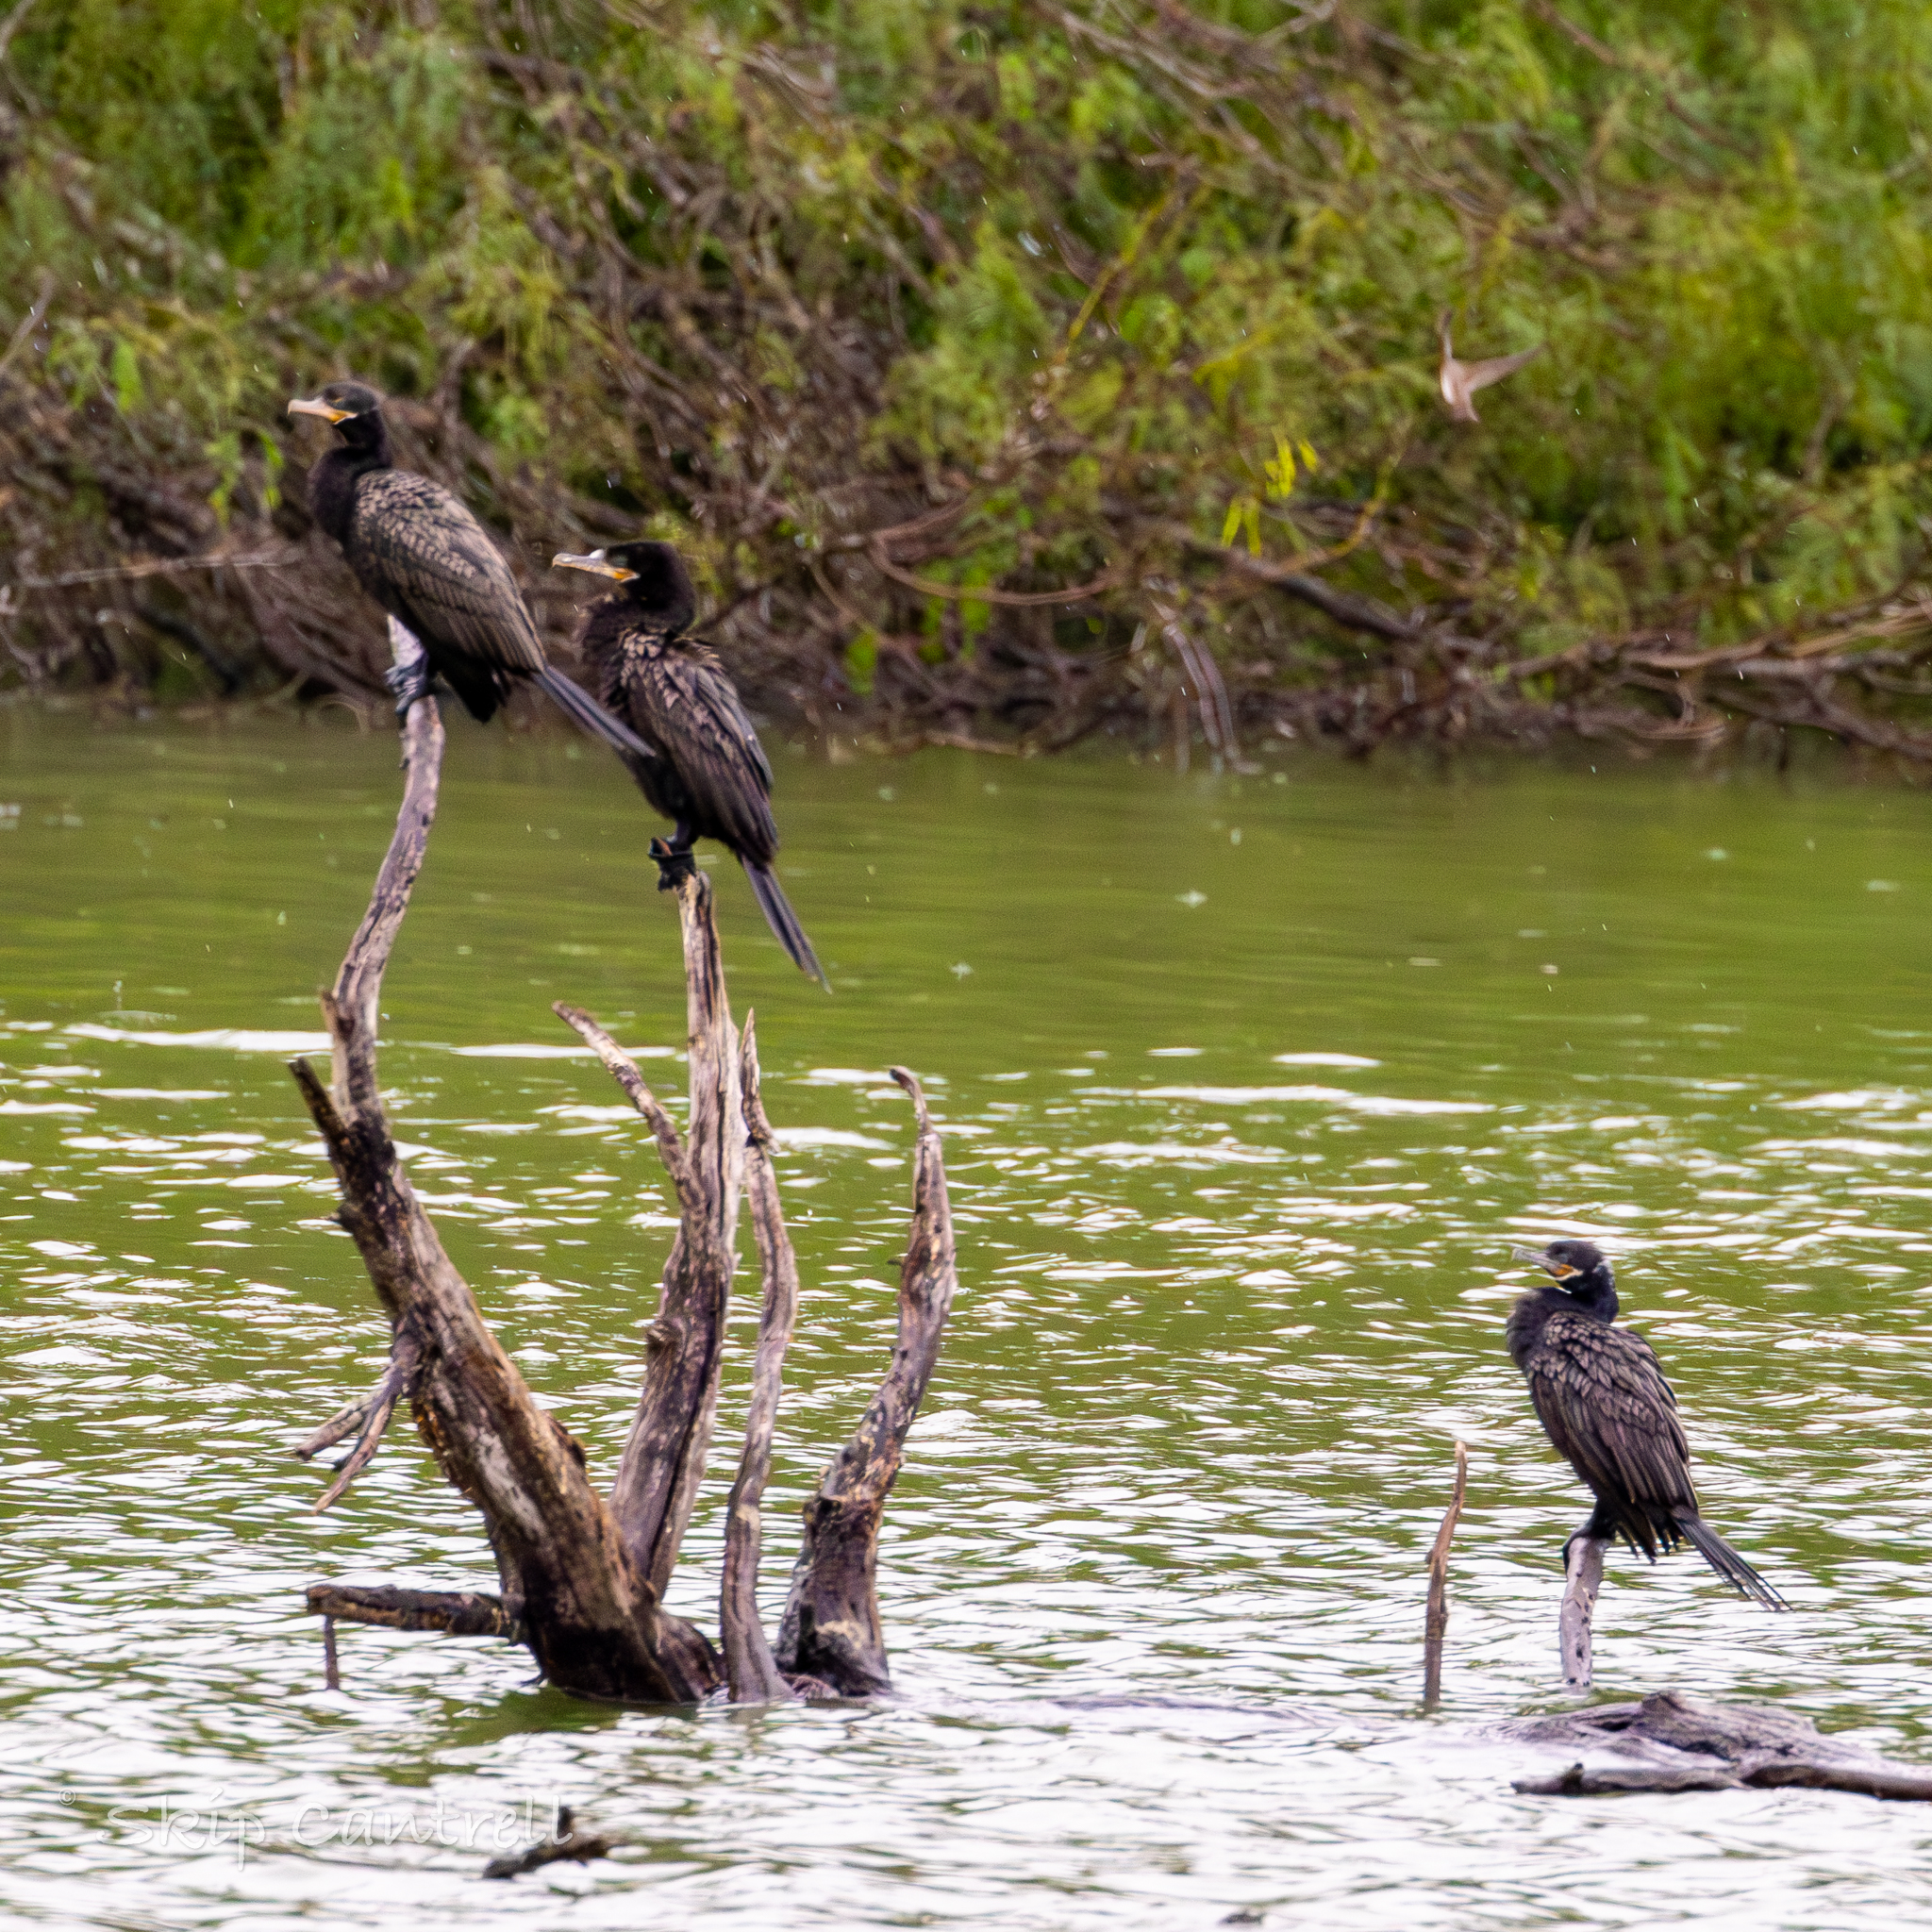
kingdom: Animalia
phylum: Chordata
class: Aves
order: Suliformes
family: Phalacrocoracidae
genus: Phalacrocorax
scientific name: Phalacrocorax brasilianus
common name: Neotropic cormorant
